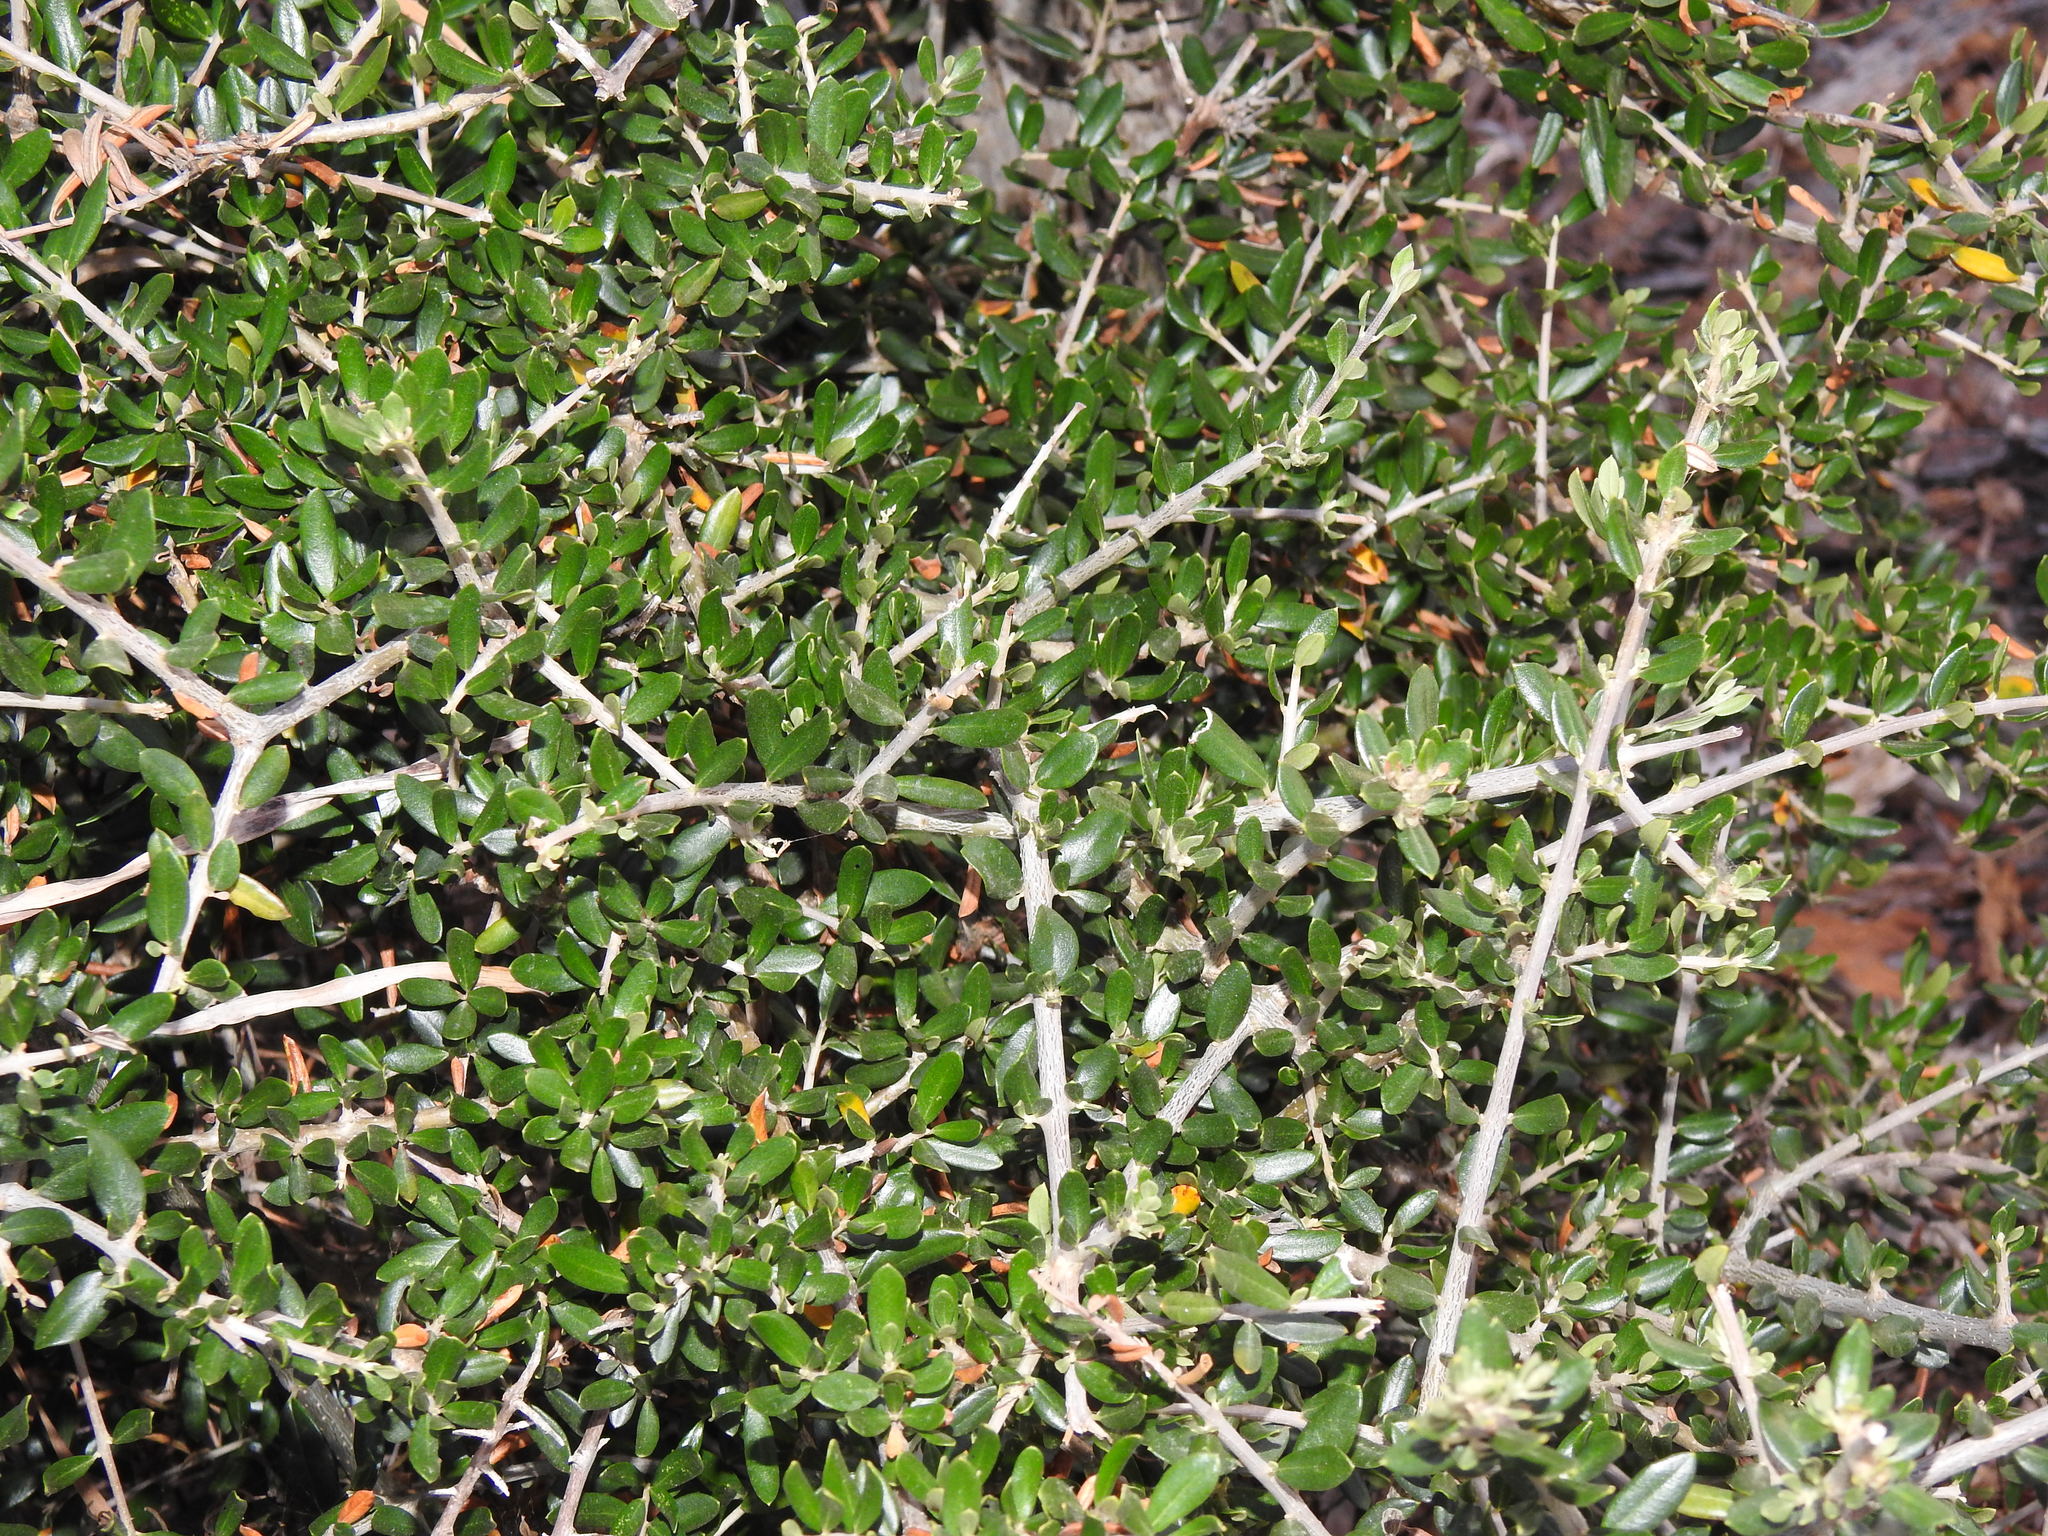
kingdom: Plantae
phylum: Tracheophyta
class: Magnoliopsida
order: Lamiales
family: Oleaceae
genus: Olea
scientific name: Olea europaea
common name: Olive
